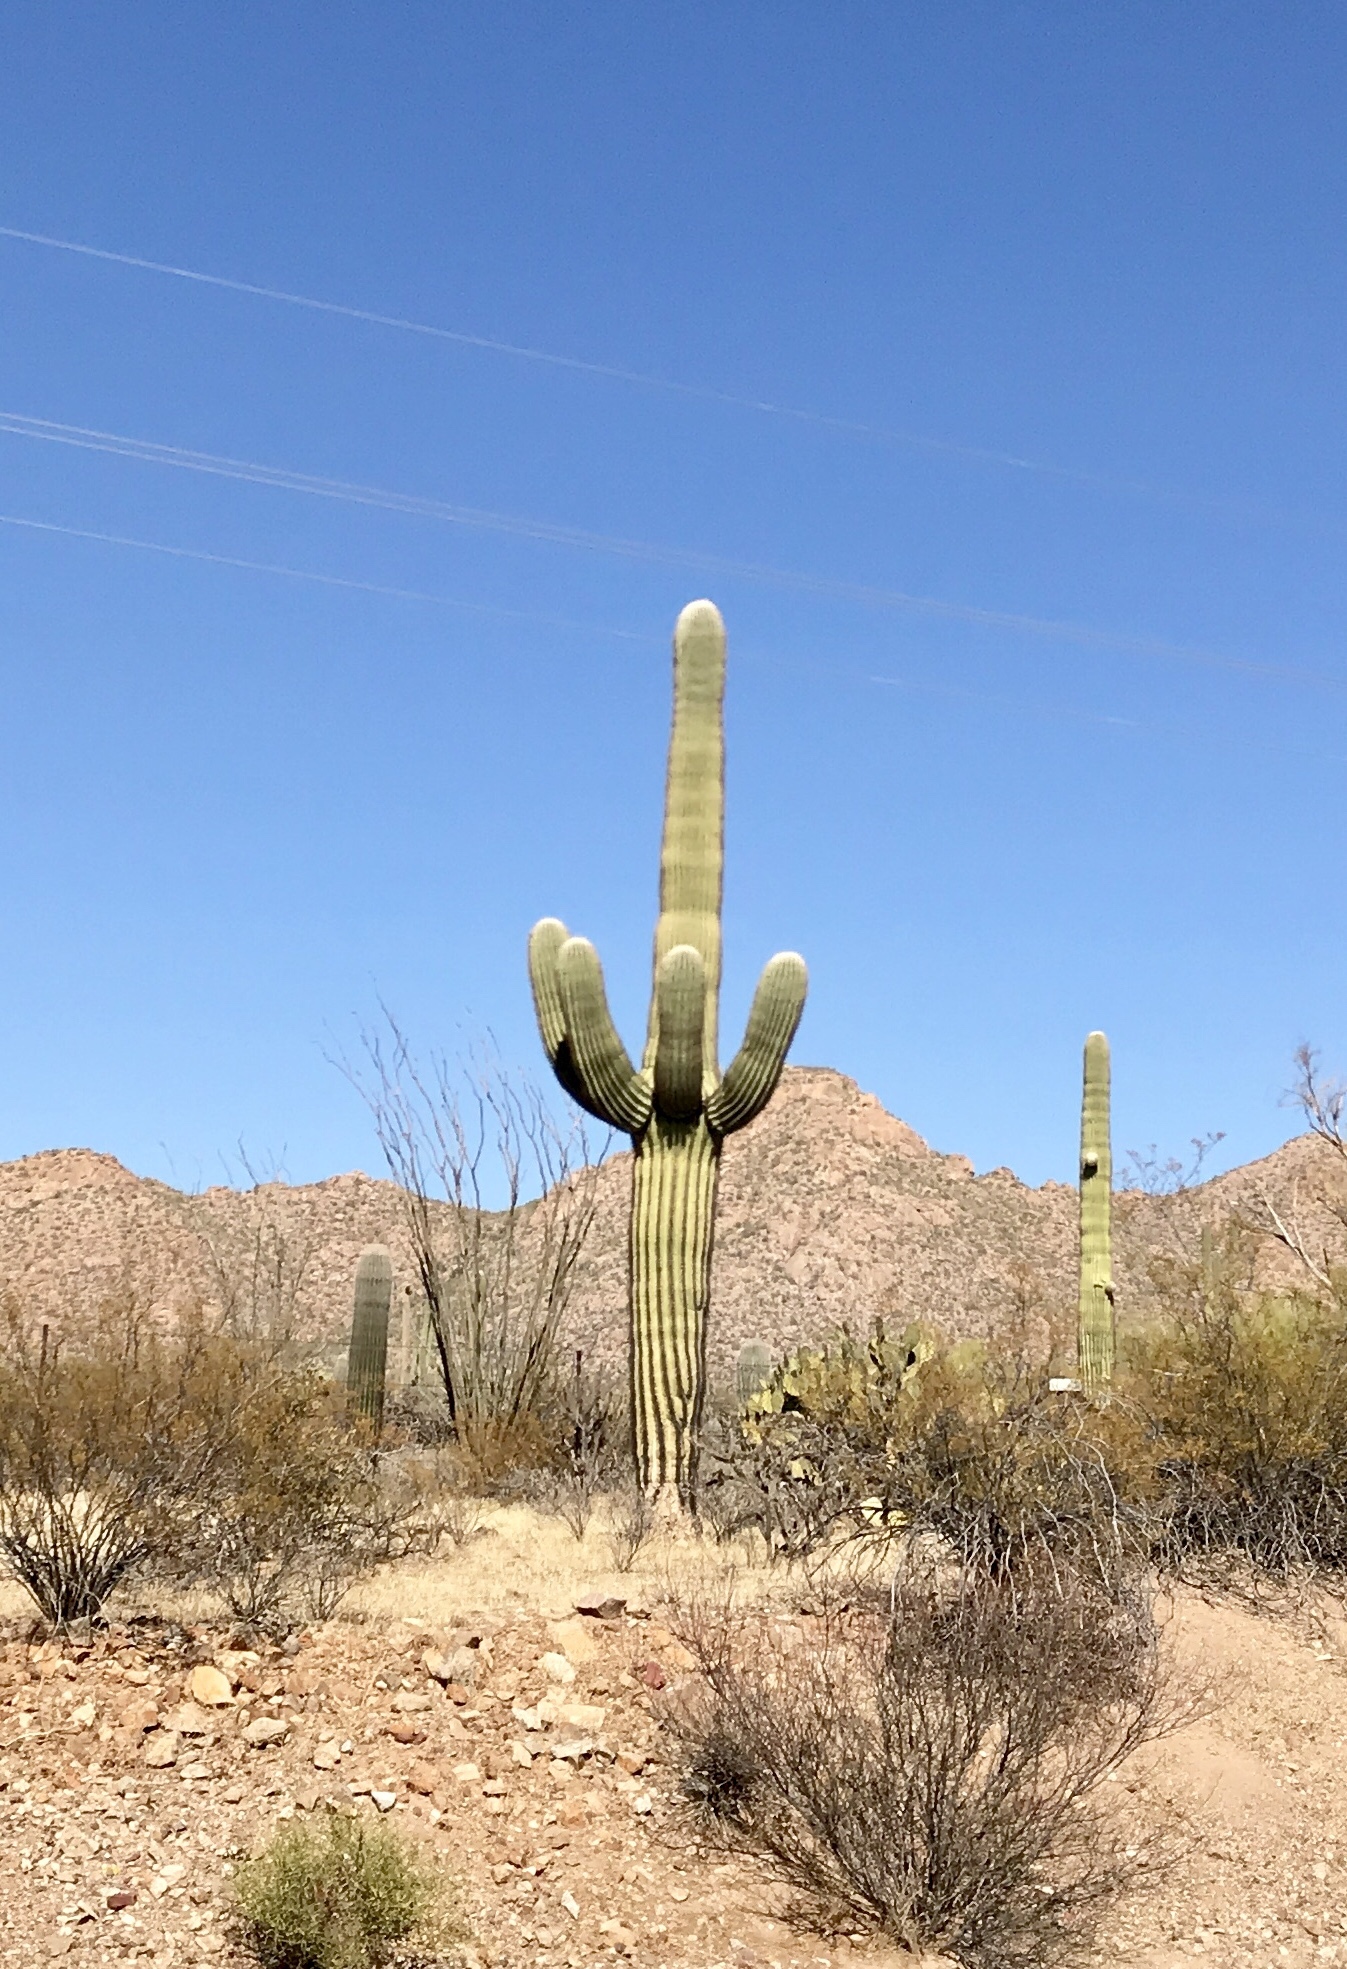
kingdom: Plantae
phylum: Tracheophyta
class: Magnoliopsida
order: Caryophyllales
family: Cactaceae
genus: Carnegiea
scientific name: Carnegiea gigantea
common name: Saguaro
